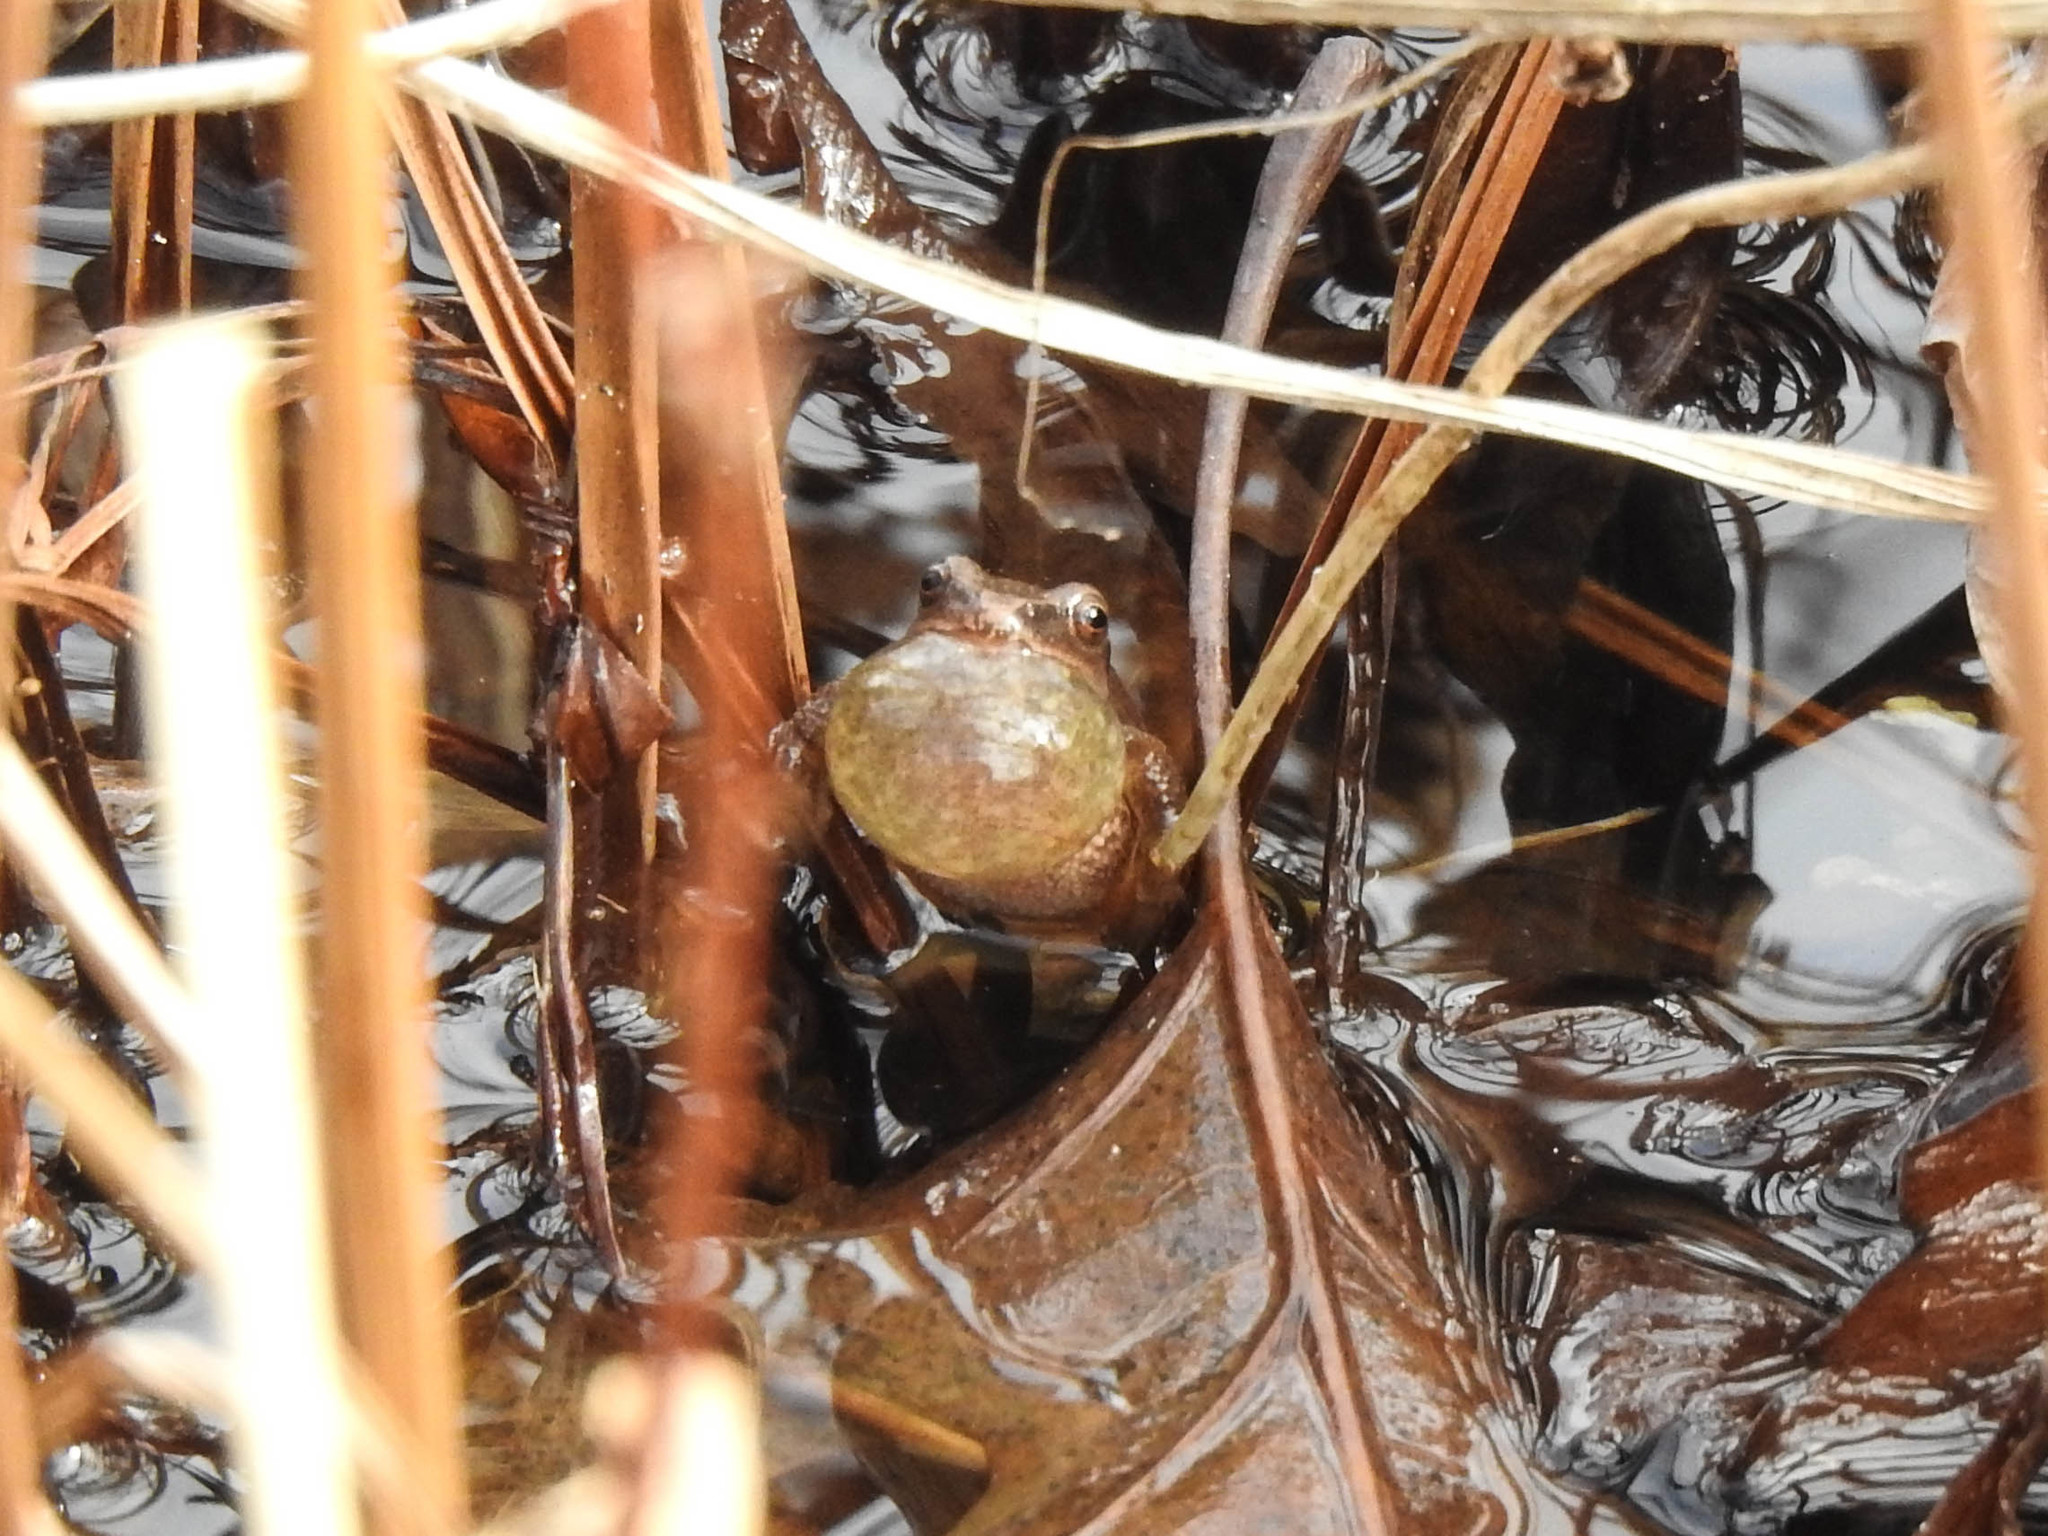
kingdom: Animalia
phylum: Chordata
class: Amphibia
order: Anura
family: Hylidae
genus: Pseudacris
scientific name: Pseudacris crucifer
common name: Spring peeper
